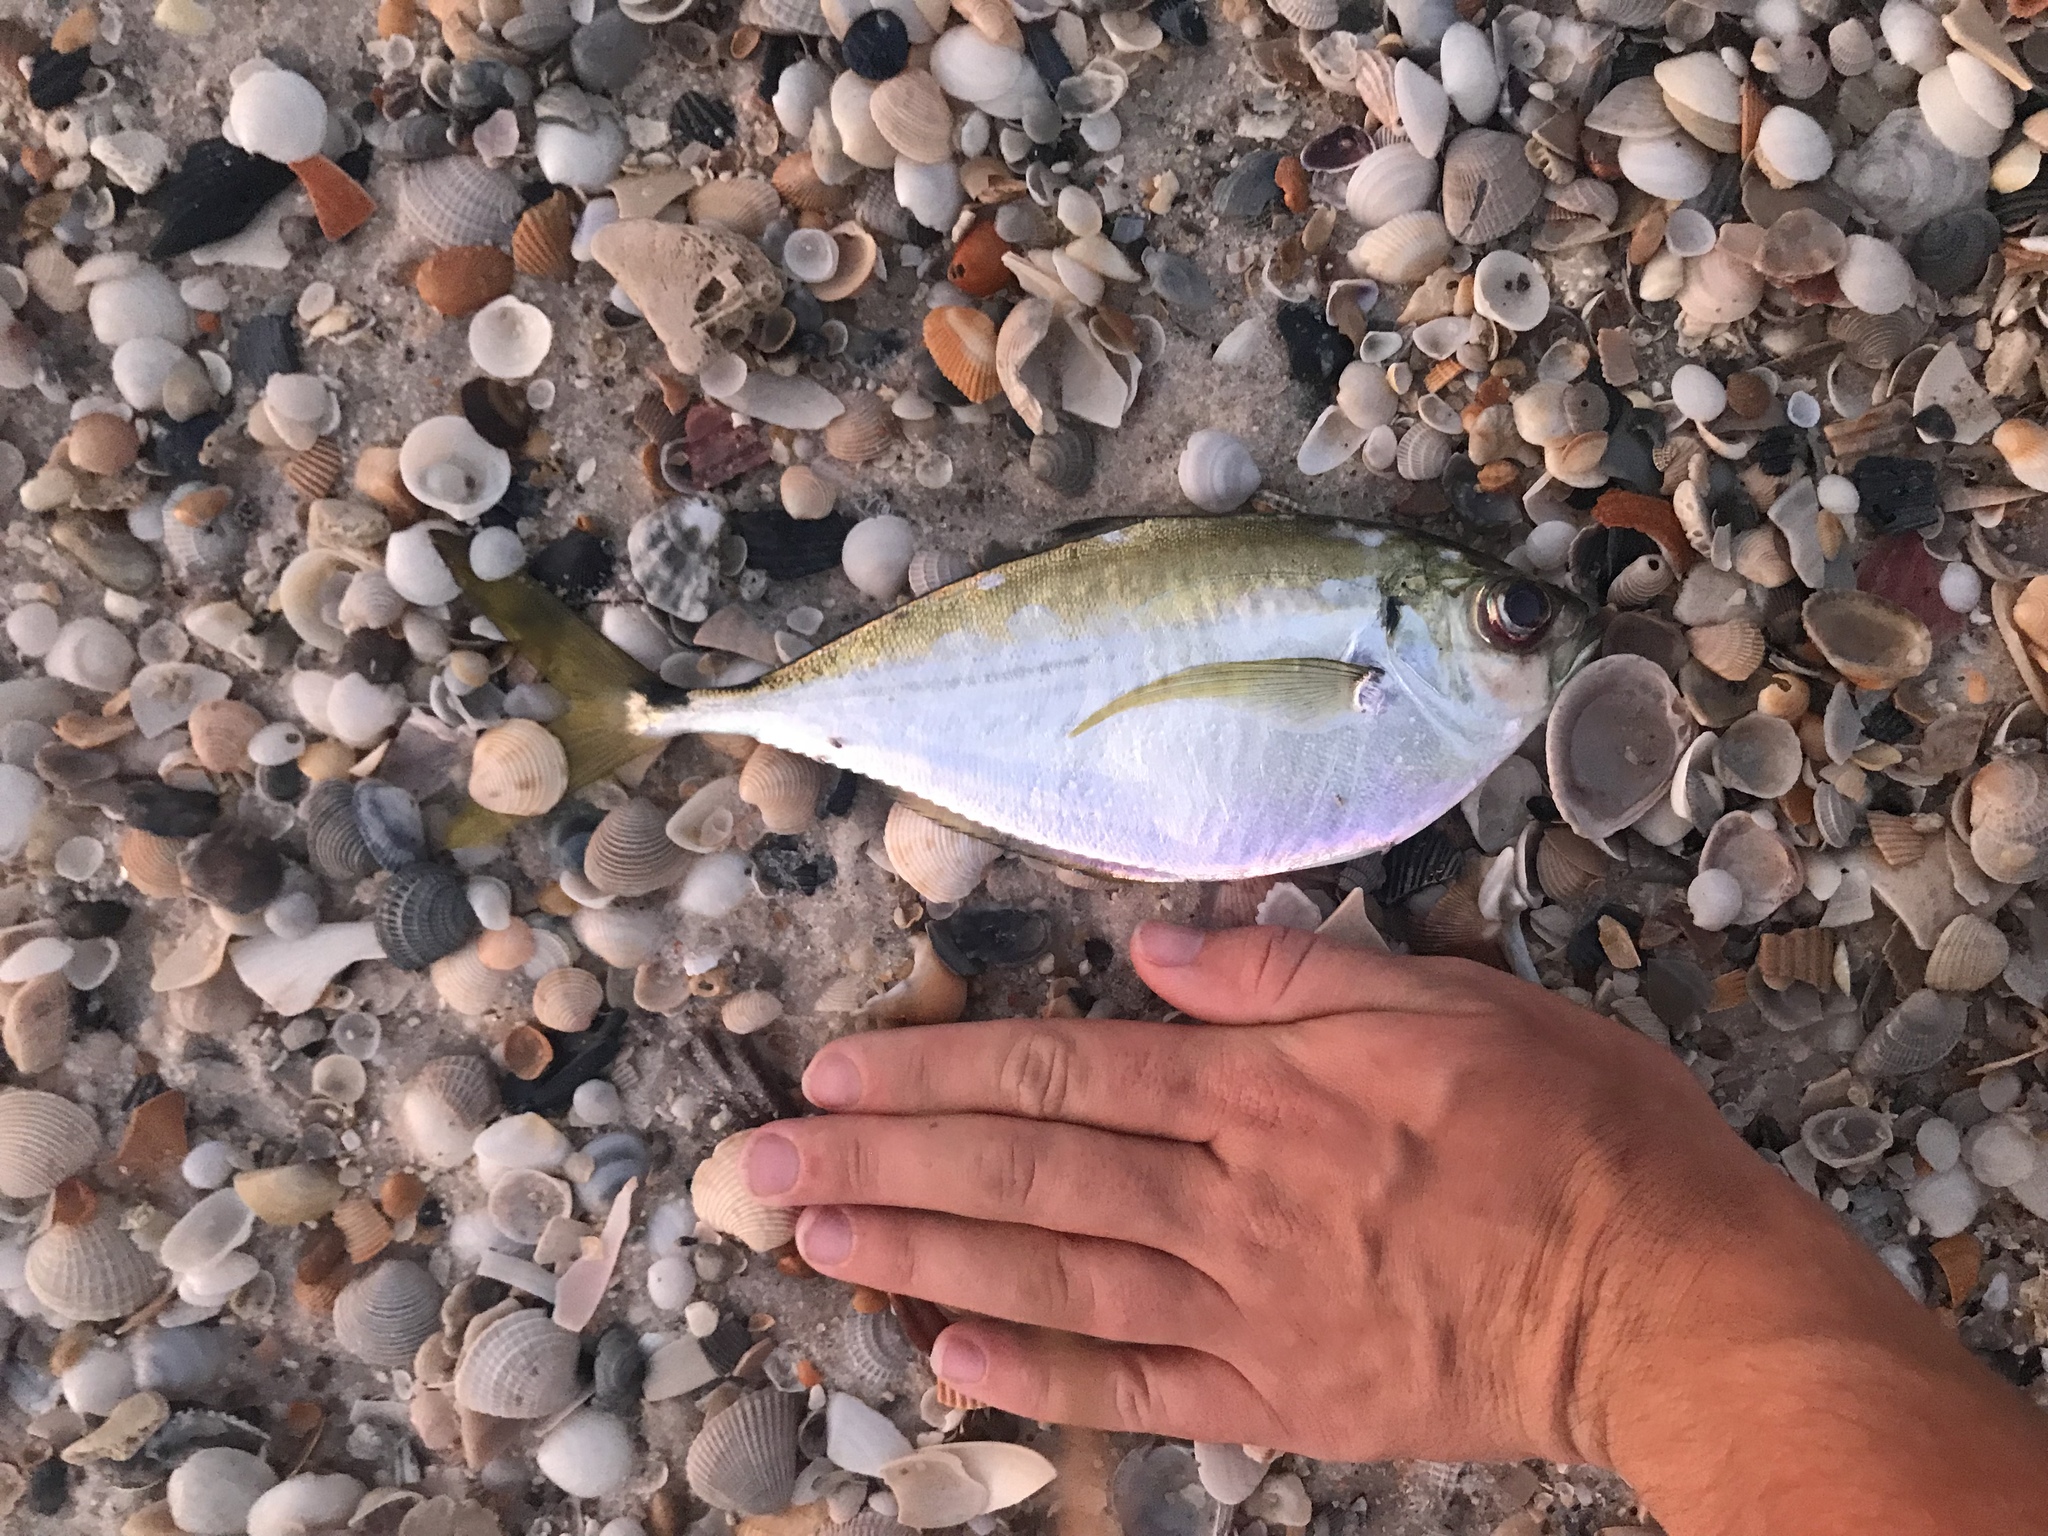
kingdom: Animalia
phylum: Chordata
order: Perciformes
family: Carangidae
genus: Chloroscombrus
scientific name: Chloroscombrus chrysurus
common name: Bumper
